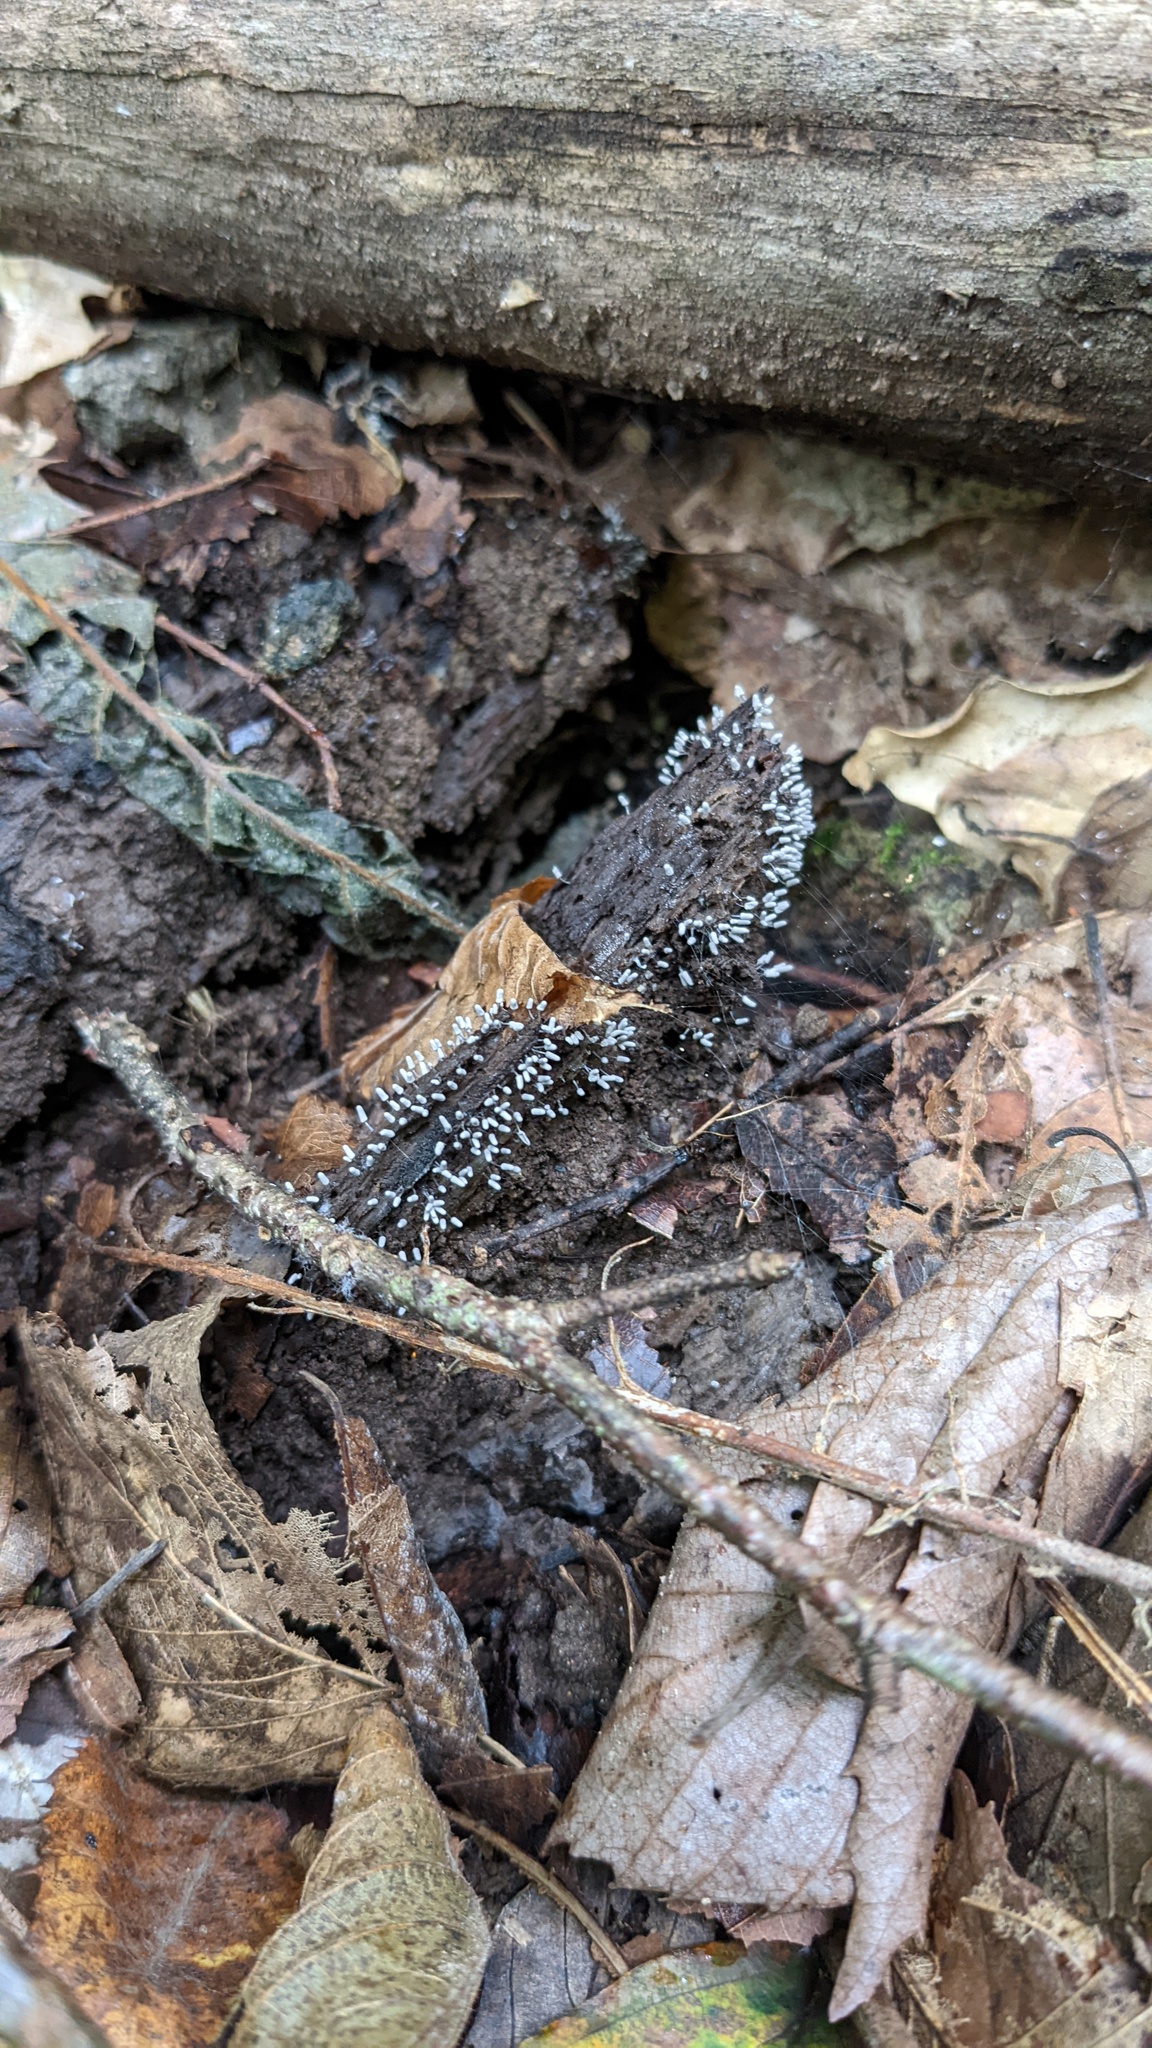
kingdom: Protozoa
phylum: Mycetozoa
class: Myxomycetes
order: Trichiales
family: Arcyriaceae
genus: Arcyria
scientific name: Arcyria cinerea
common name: White carnival candy slime mold
